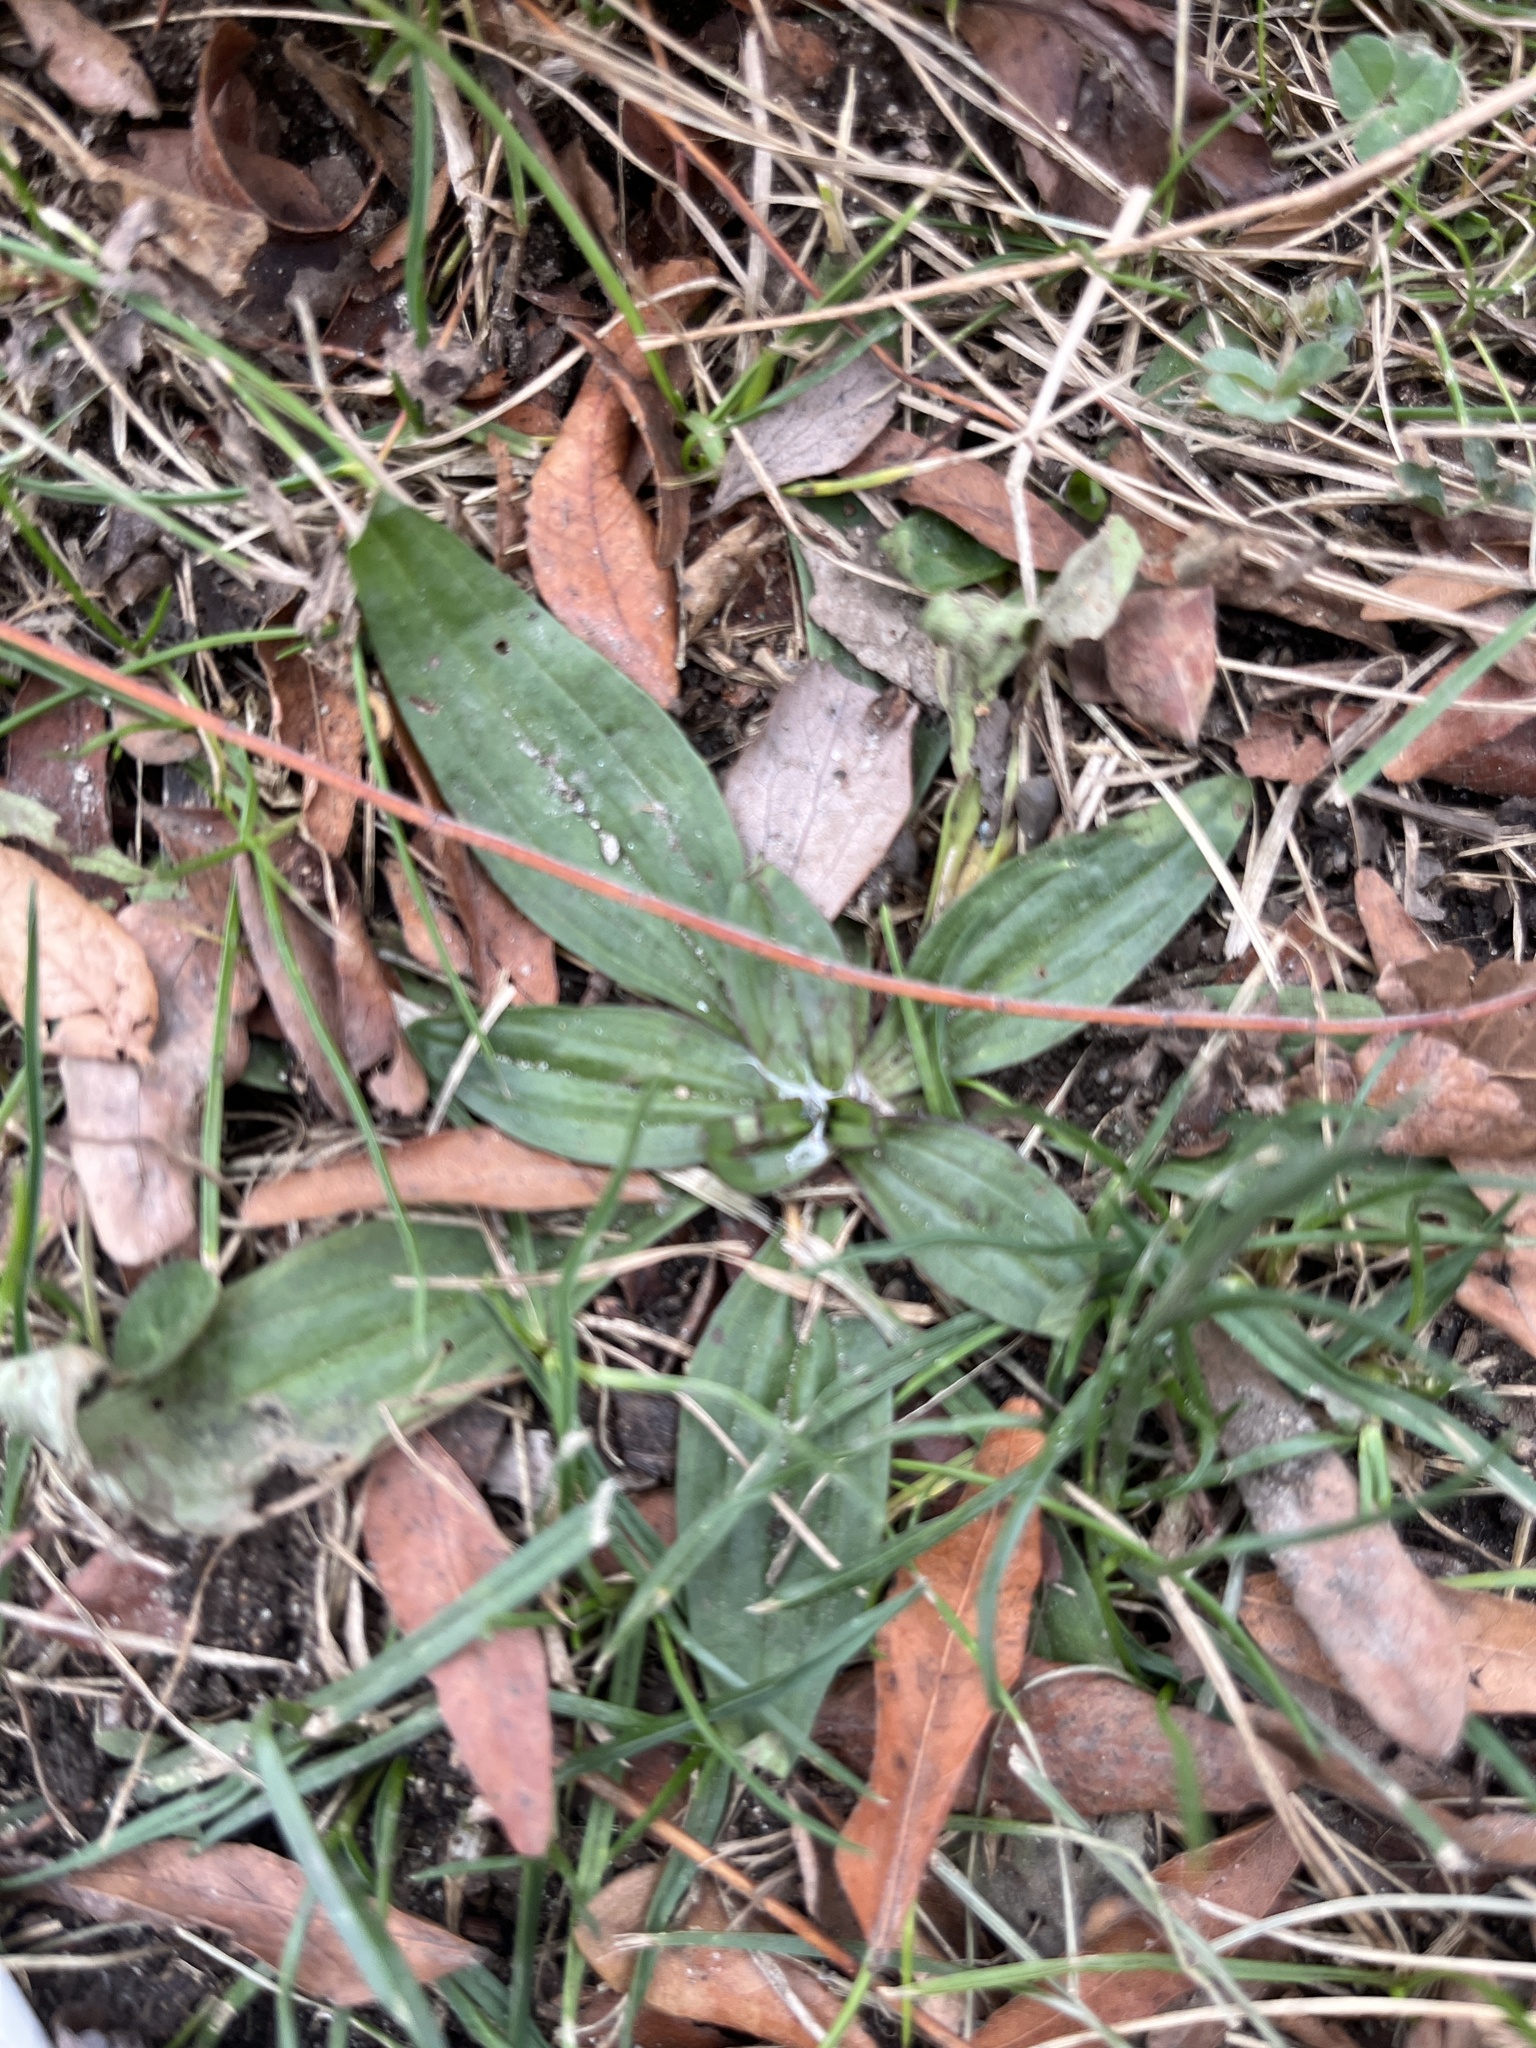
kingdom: Plantae
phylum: Tracheophyta
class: Magnoliopsida
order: Lamiales
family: Plantaginaceae
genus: Plantago
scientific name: Plantago lanceolata
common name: Ribwort plantain
